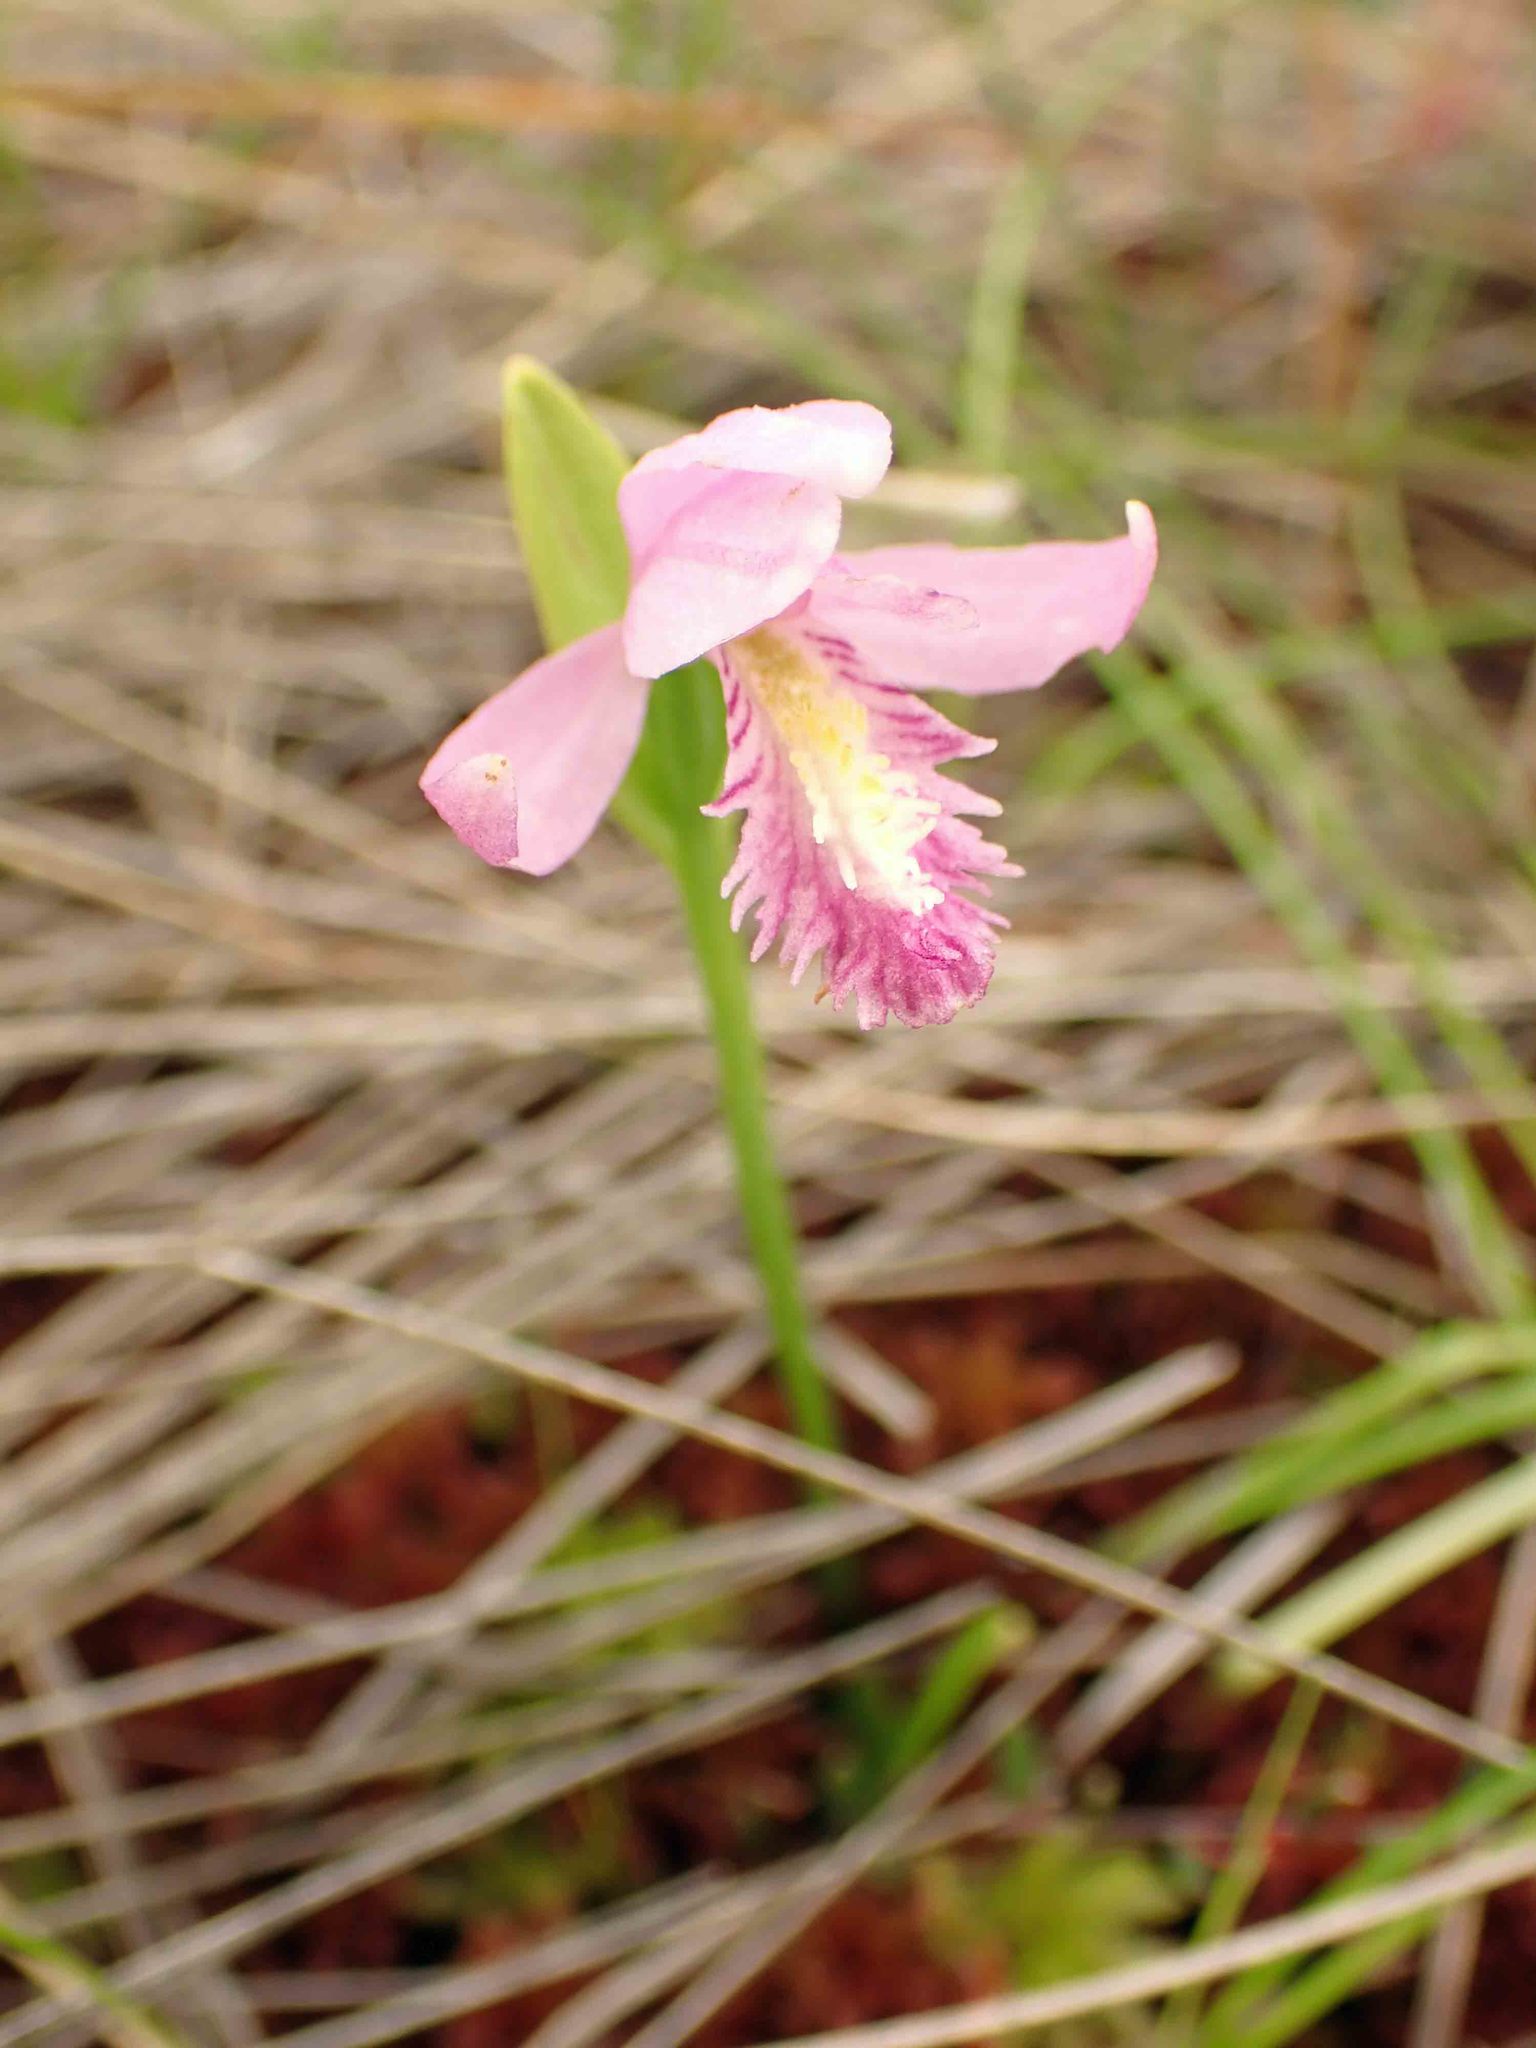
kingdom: Plantae
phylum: Tracheophyta
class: Liliopsida
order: Asparagales
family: Orchidaceae
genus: Pogonia
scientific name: Pogonia ophioglossoides
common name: Rose pogonia
